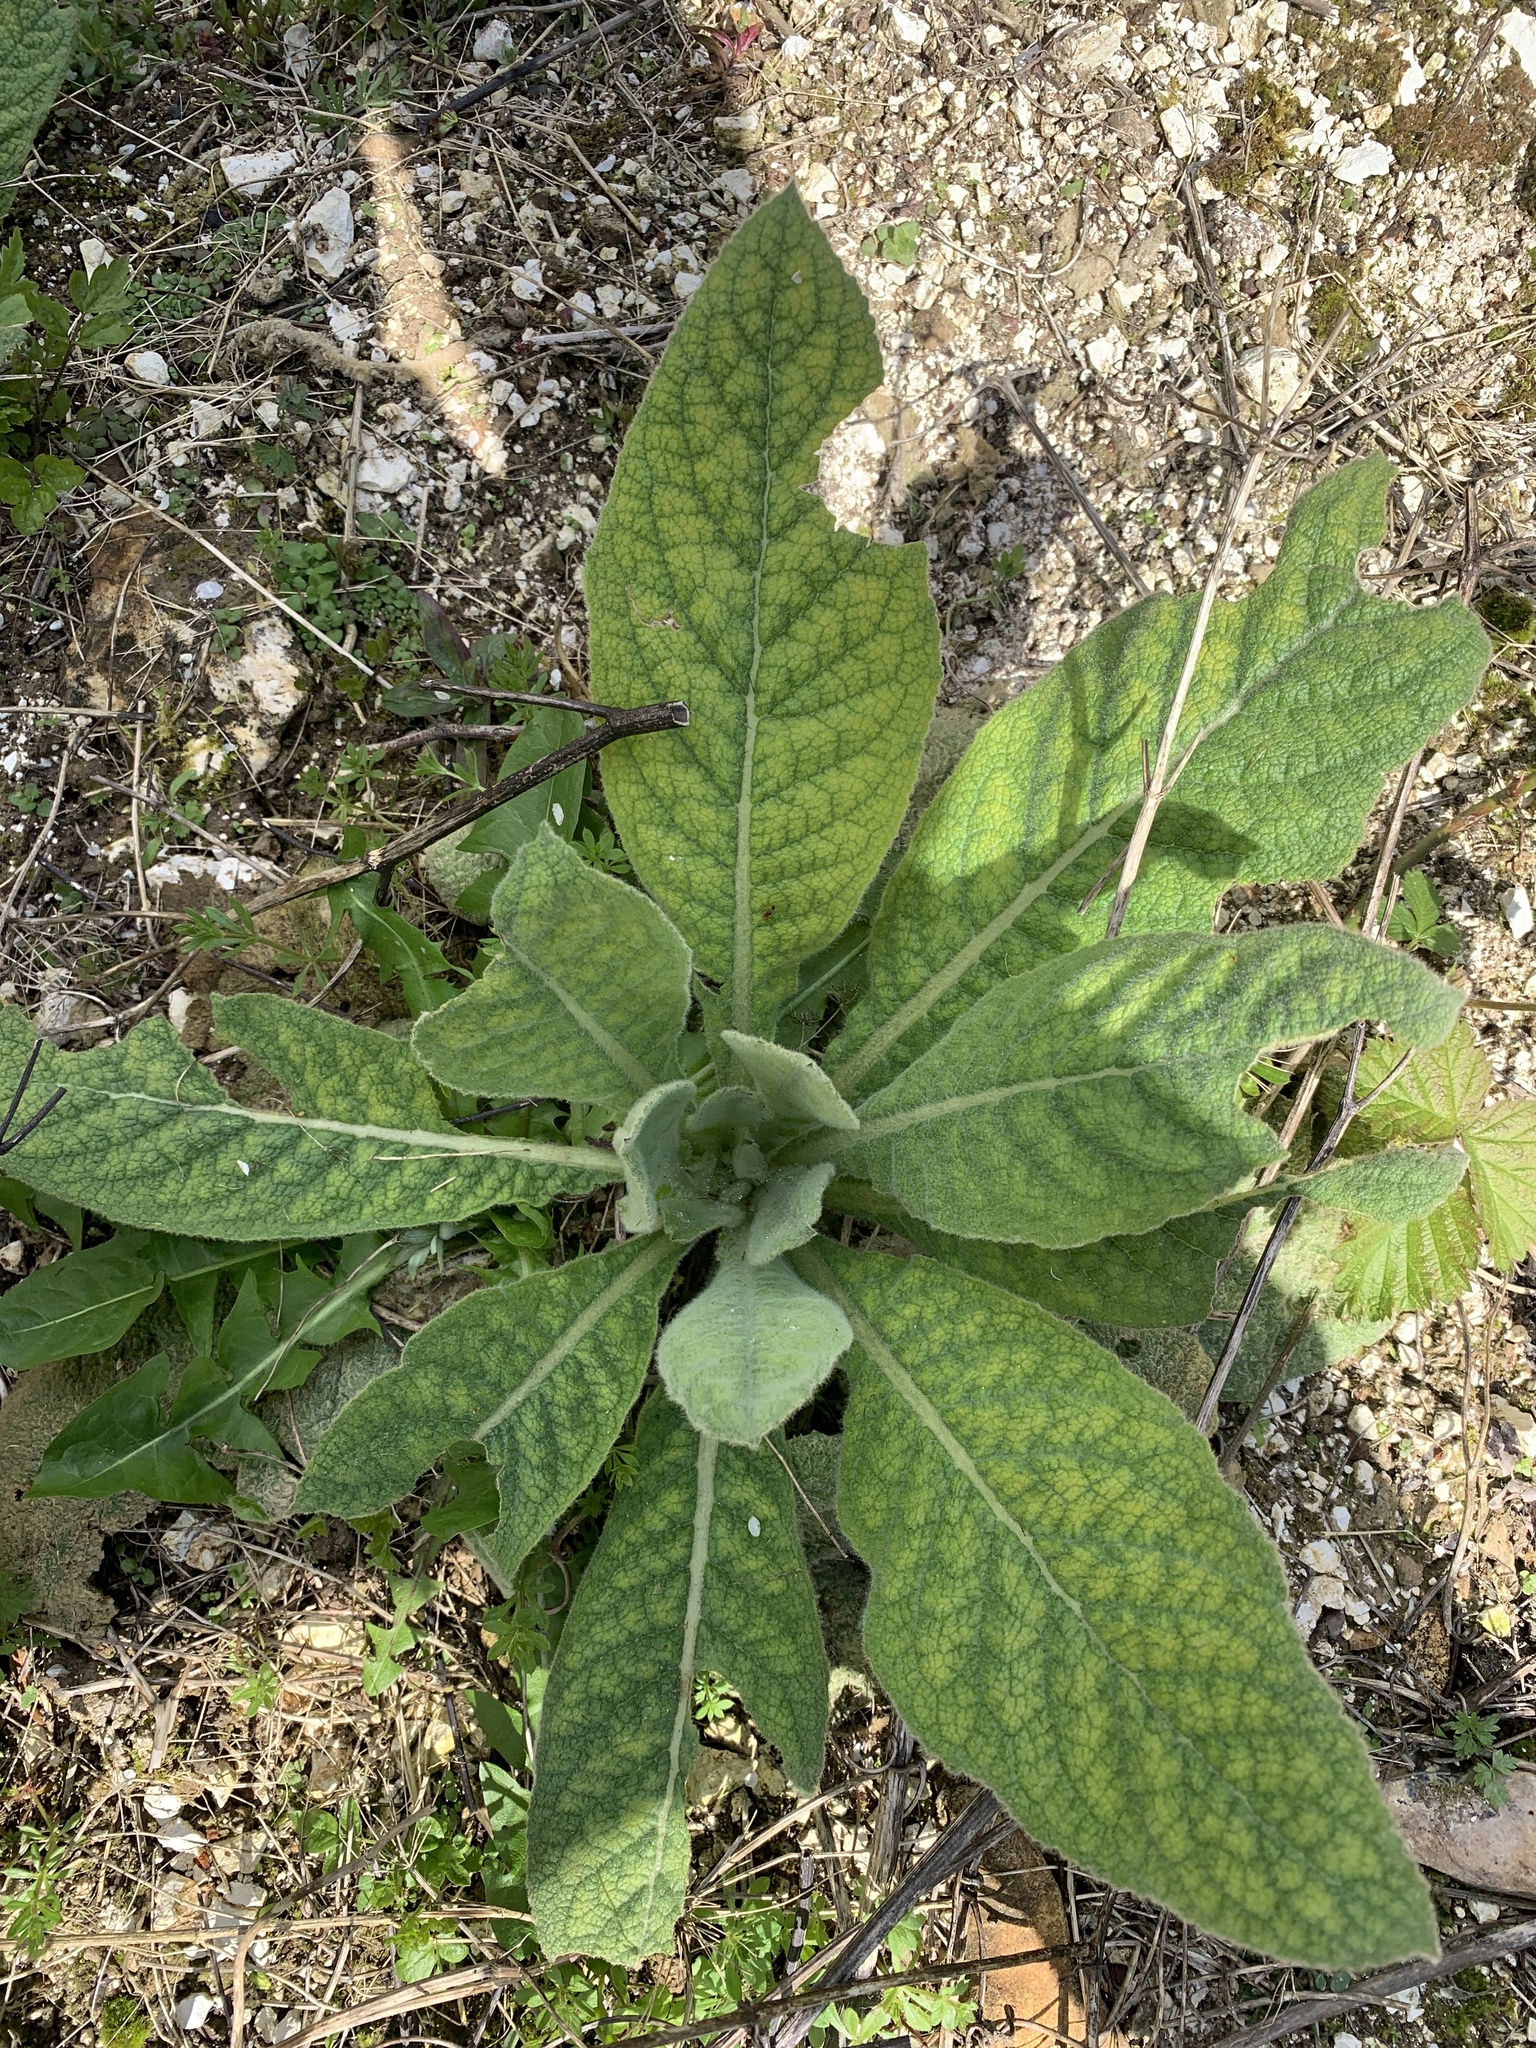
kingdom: Plantae
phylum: Tracheophyta
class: Magnoliopsida
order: Lamiales
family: Scrophulariaceae
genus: Verbascum
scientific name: Verbascum thapsus
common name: Common mullein
